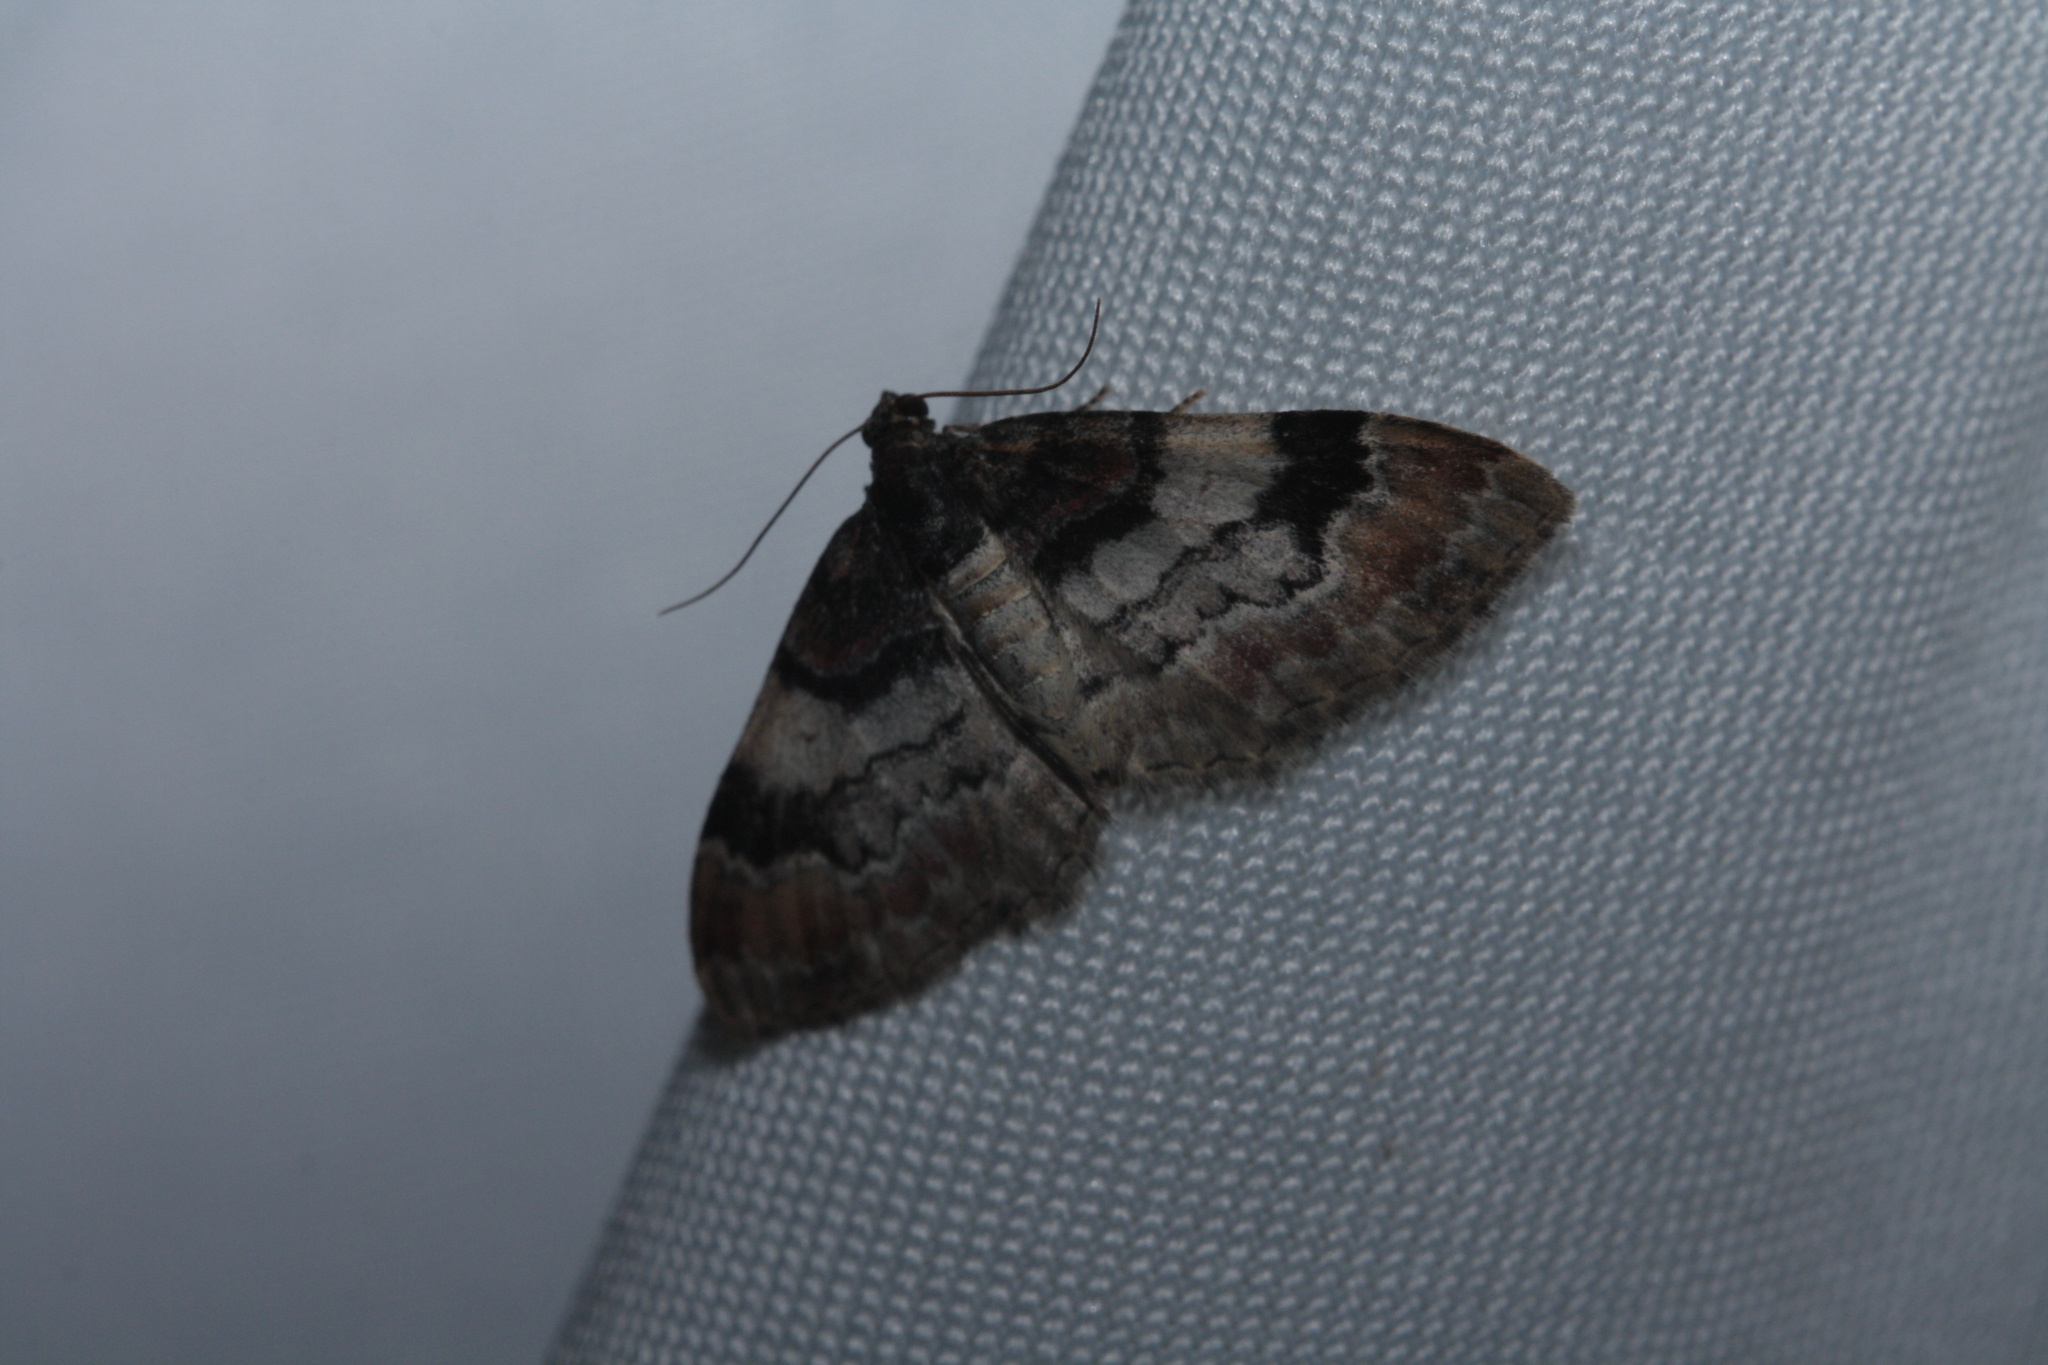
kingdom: Animalia
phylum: Arthropoda
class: Insecta
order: Lepidoptera
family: Geometridae
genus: Catarhoe
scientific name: Catarhoe cuculata
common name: Royal mantle
